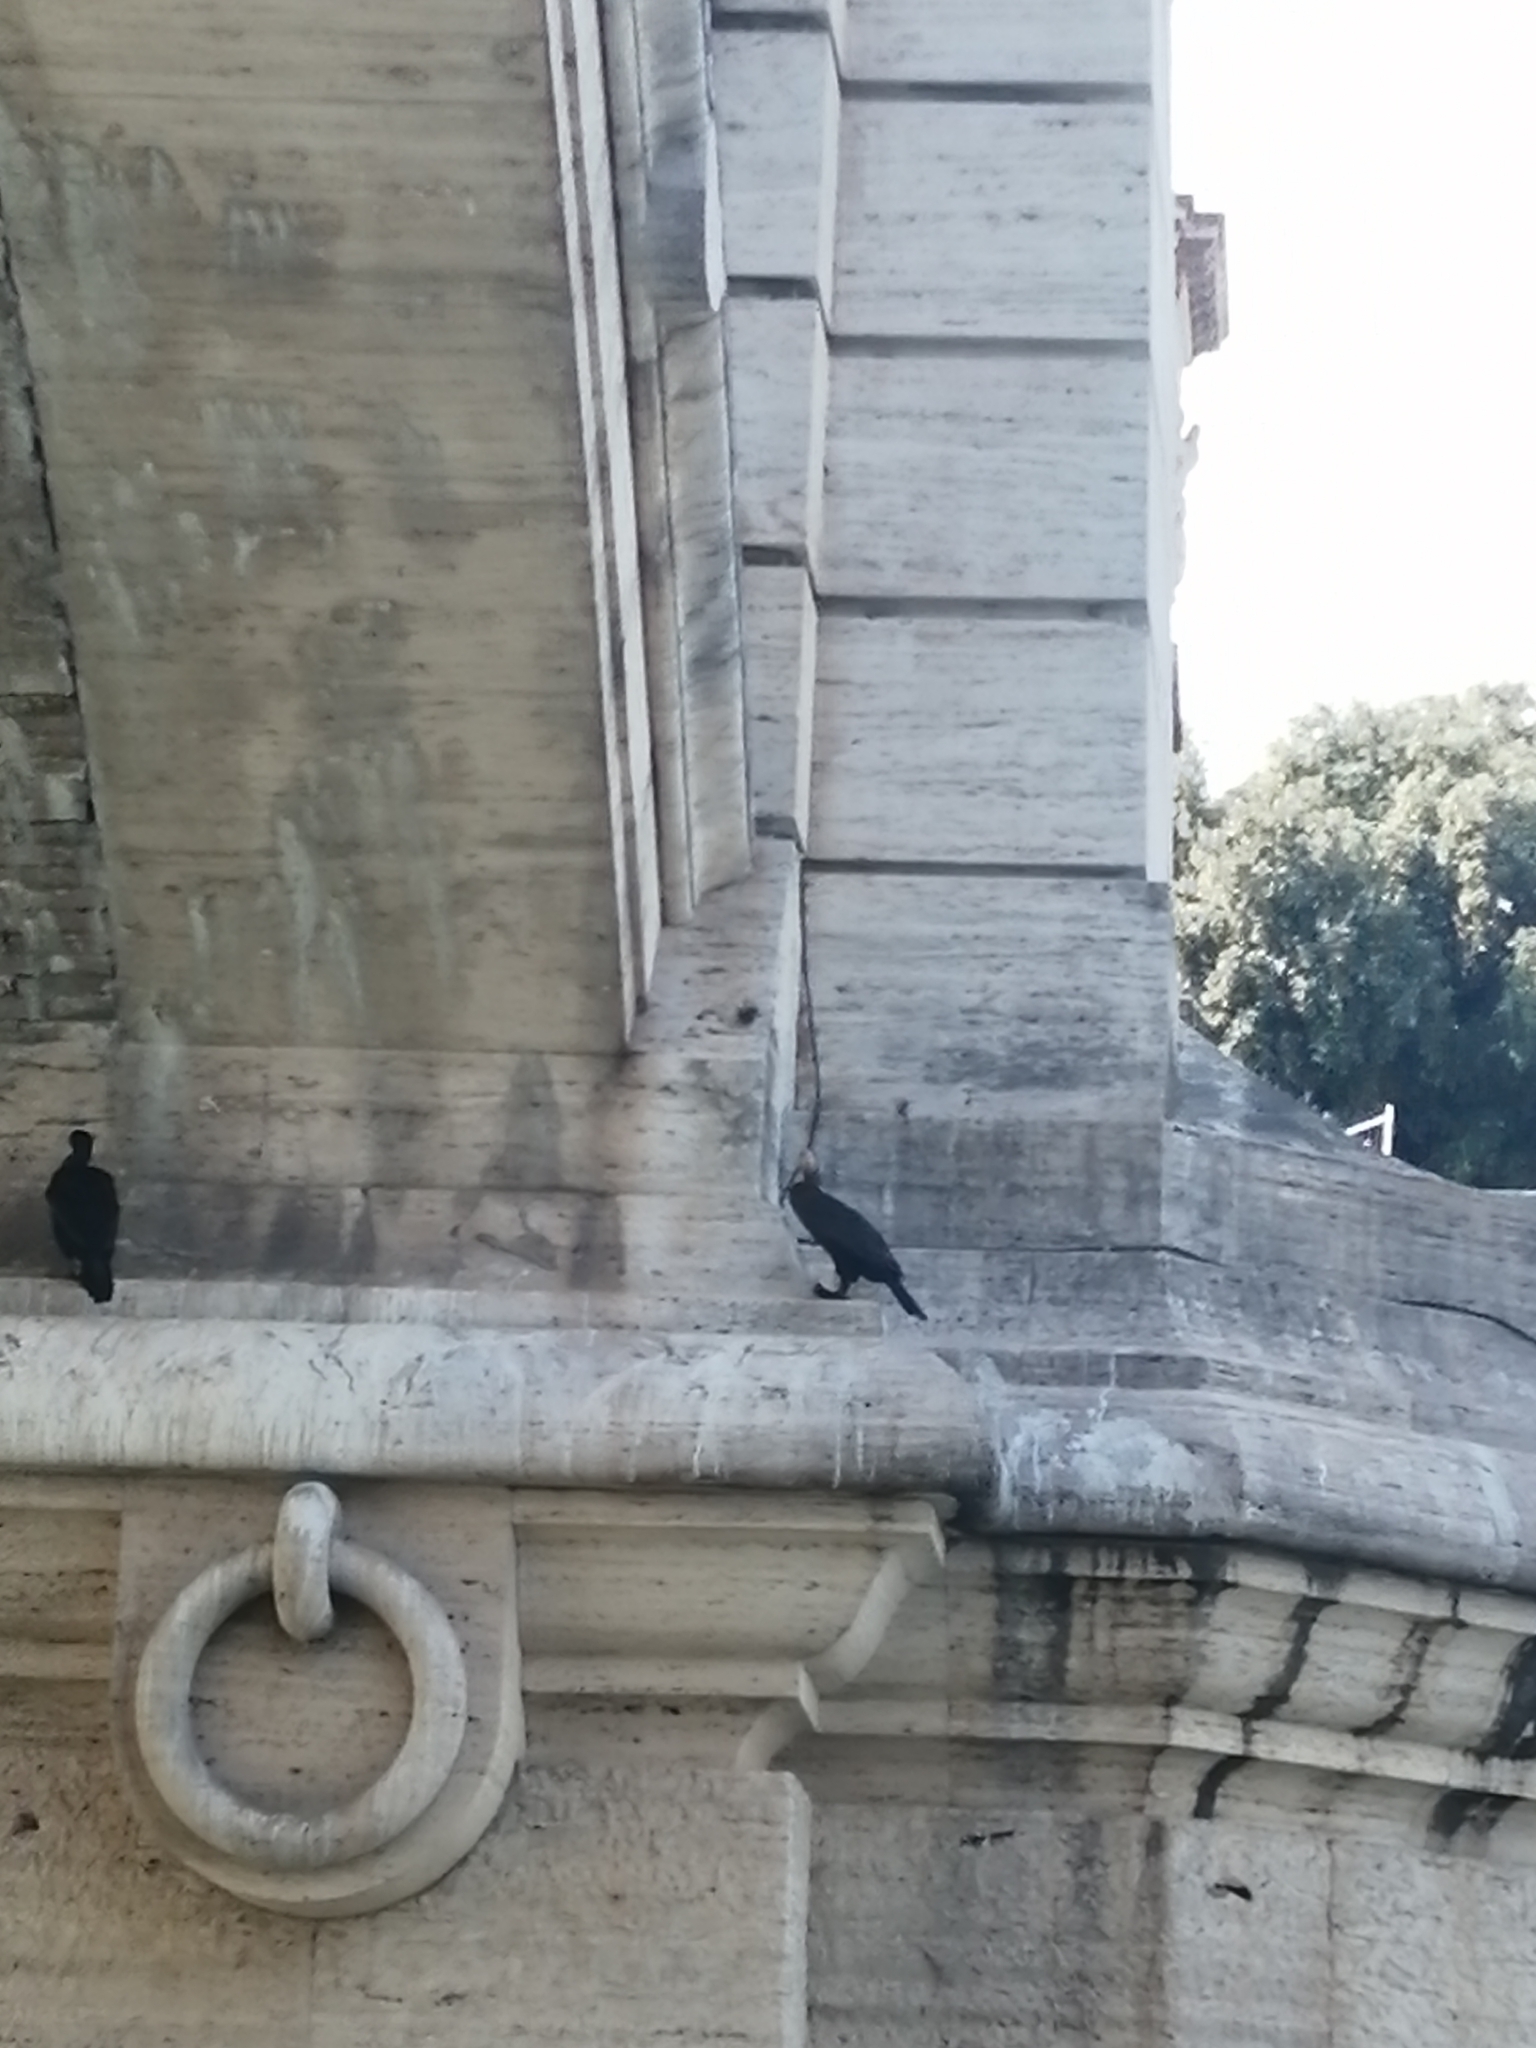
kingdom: Animalia
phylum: Chordata
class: Aves
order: Suliformes
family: Phalacrocoracidae
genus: Phalacrocorax
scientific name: Phalacrocorax carbo
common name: Great cormorant
